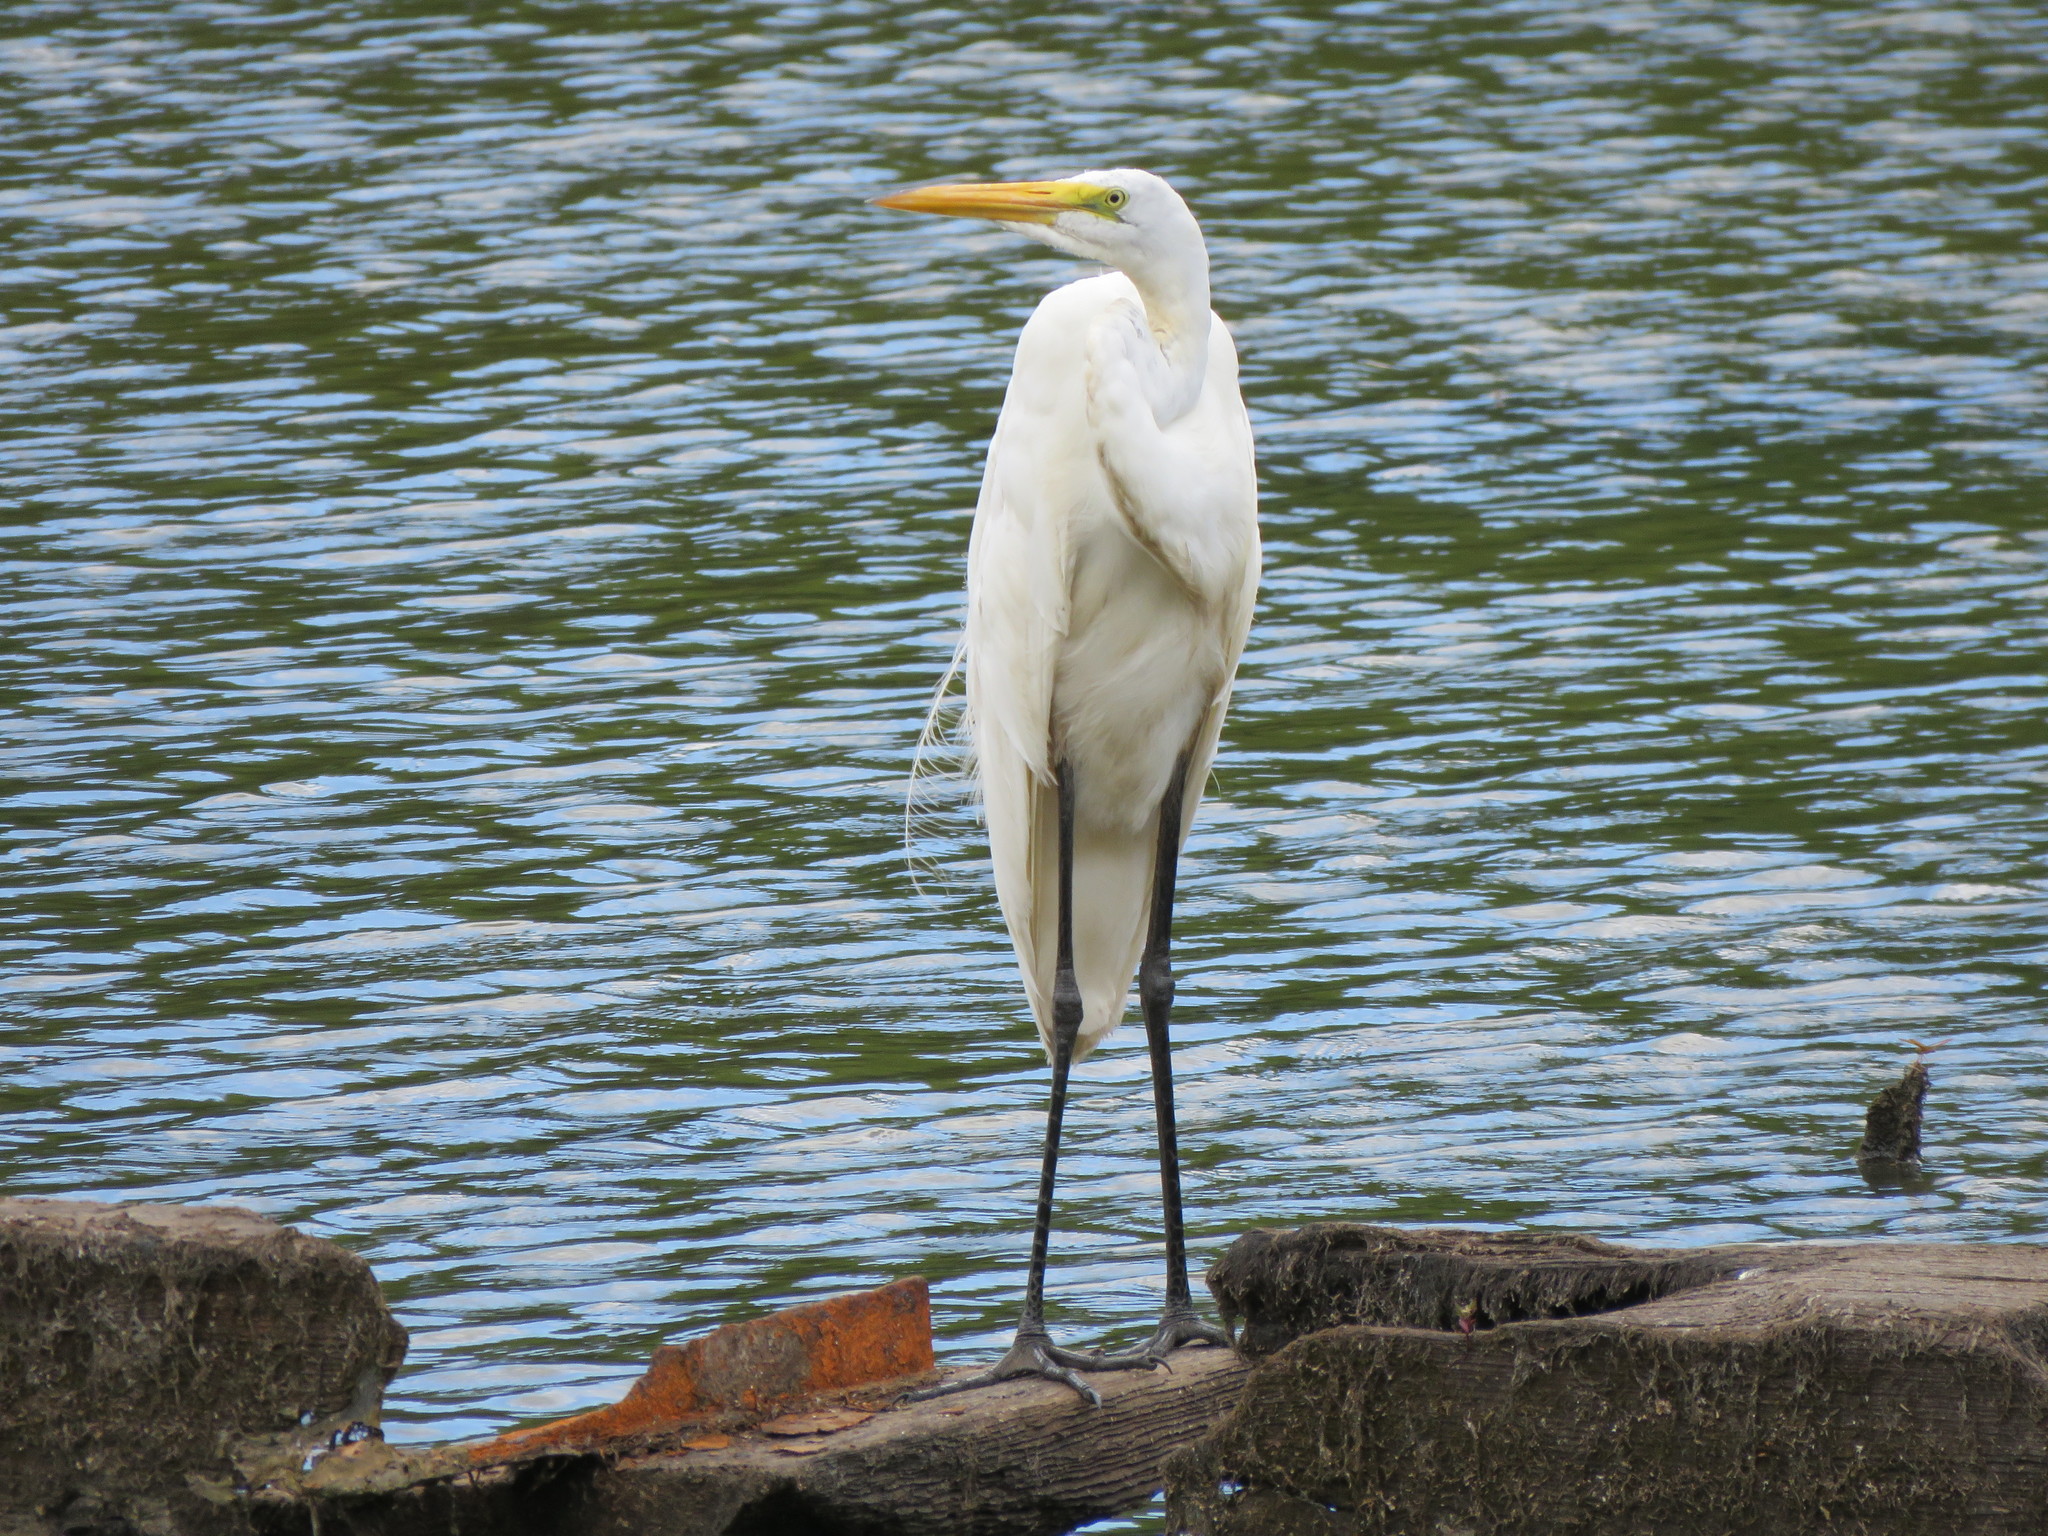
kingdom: Animalia
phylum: Chordata
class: Aves
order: Pelecaniformes
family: Ardeidae
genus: Ardea
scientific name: Ardea alba
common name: Great egret
